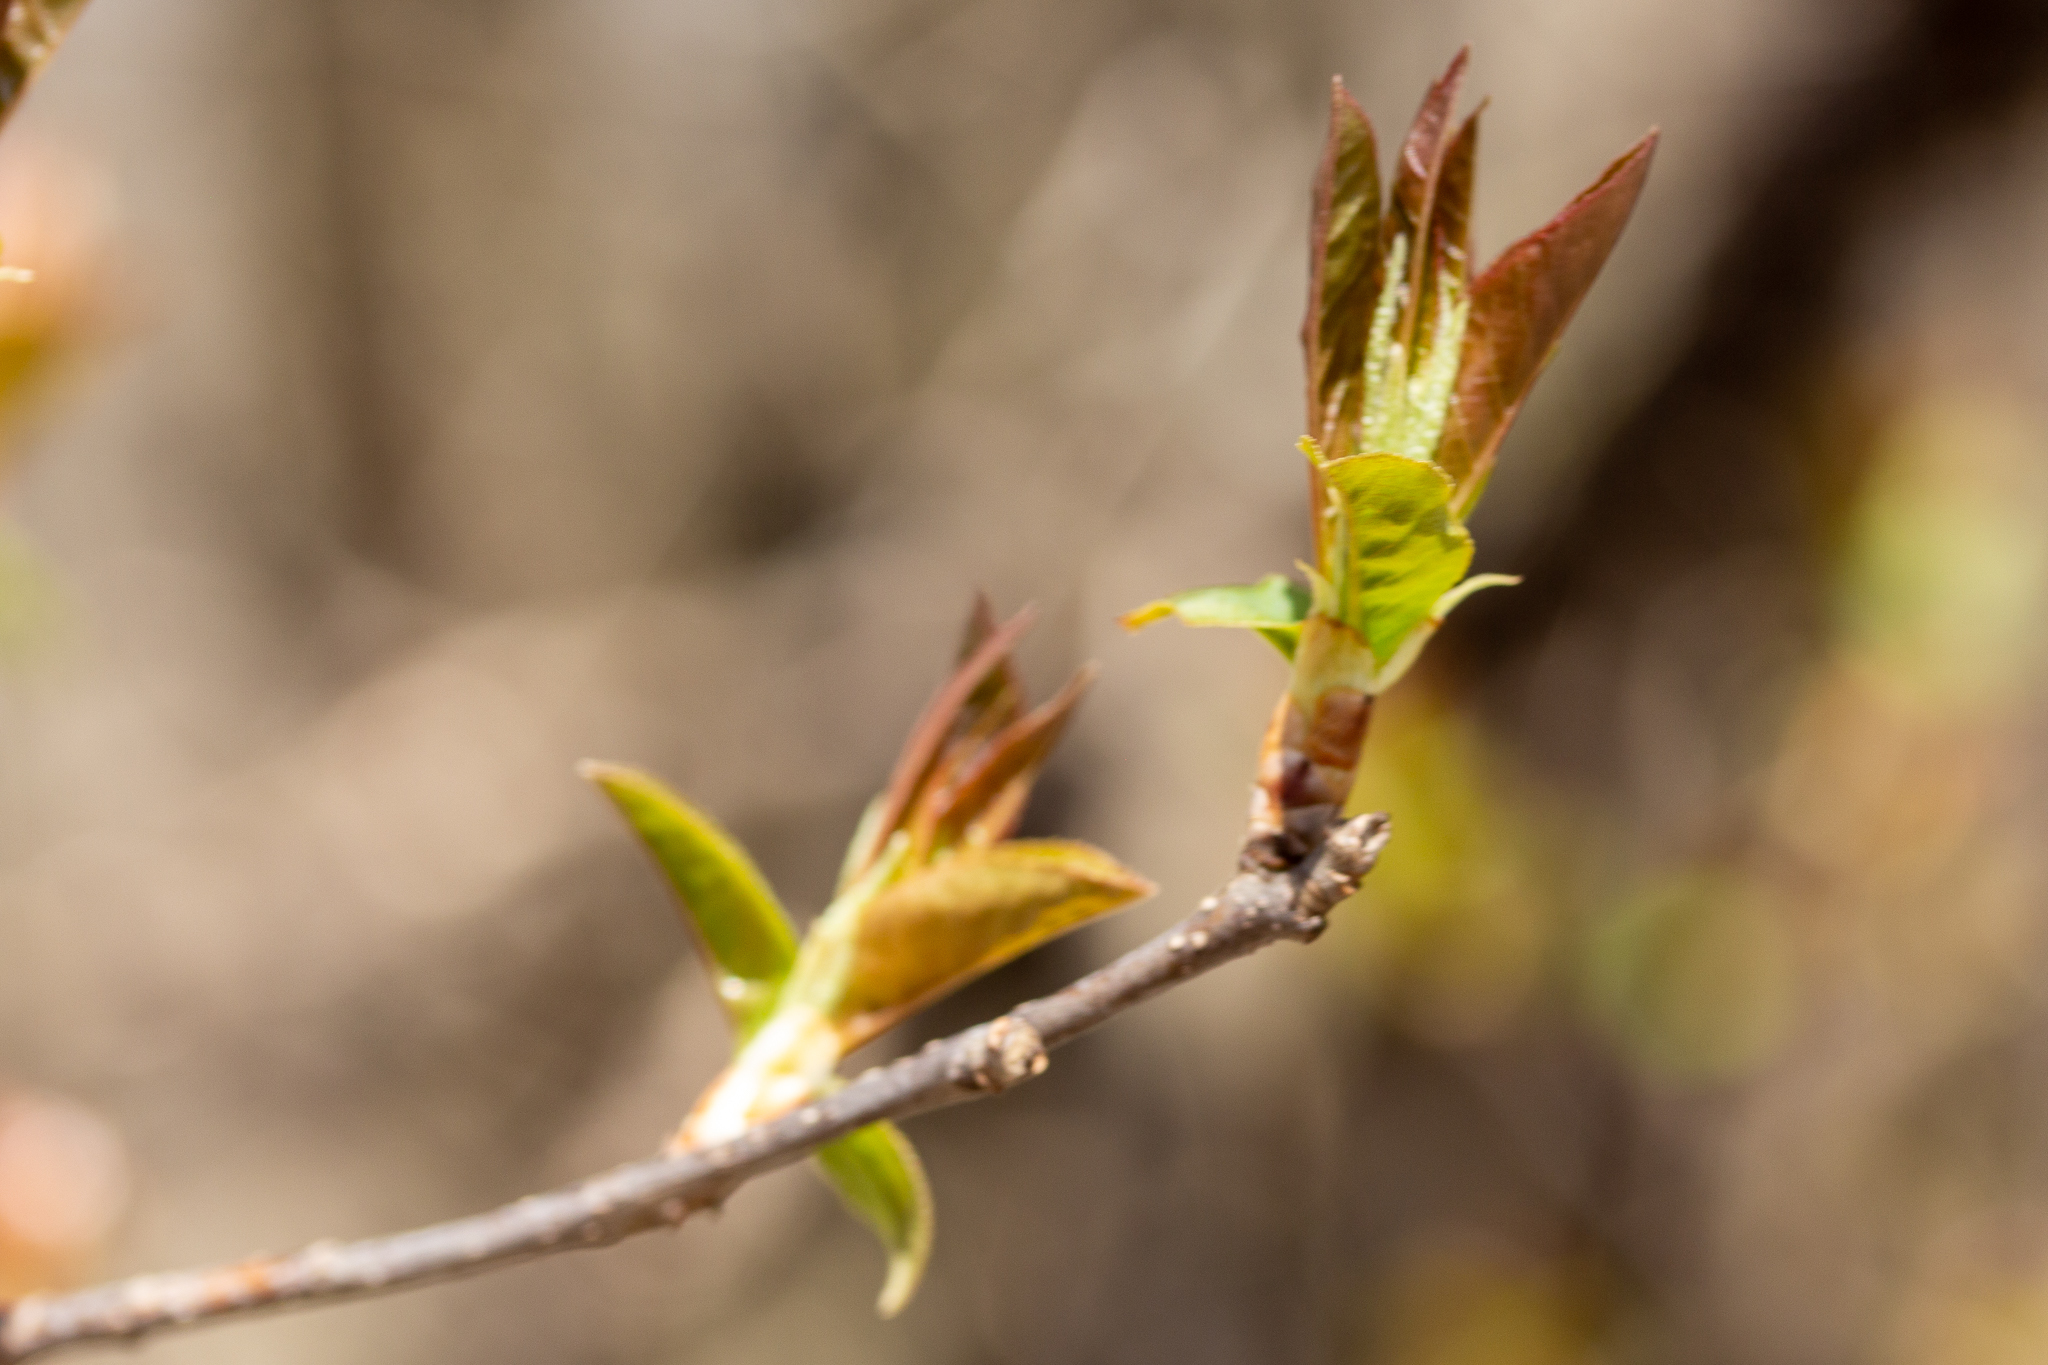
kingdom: Plantae
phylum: Tracheophyta
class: Magnoliopsida
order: Rosales
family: Rosaceae
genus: Prunus
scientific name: Prunus virginiana
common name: Chokecherry
